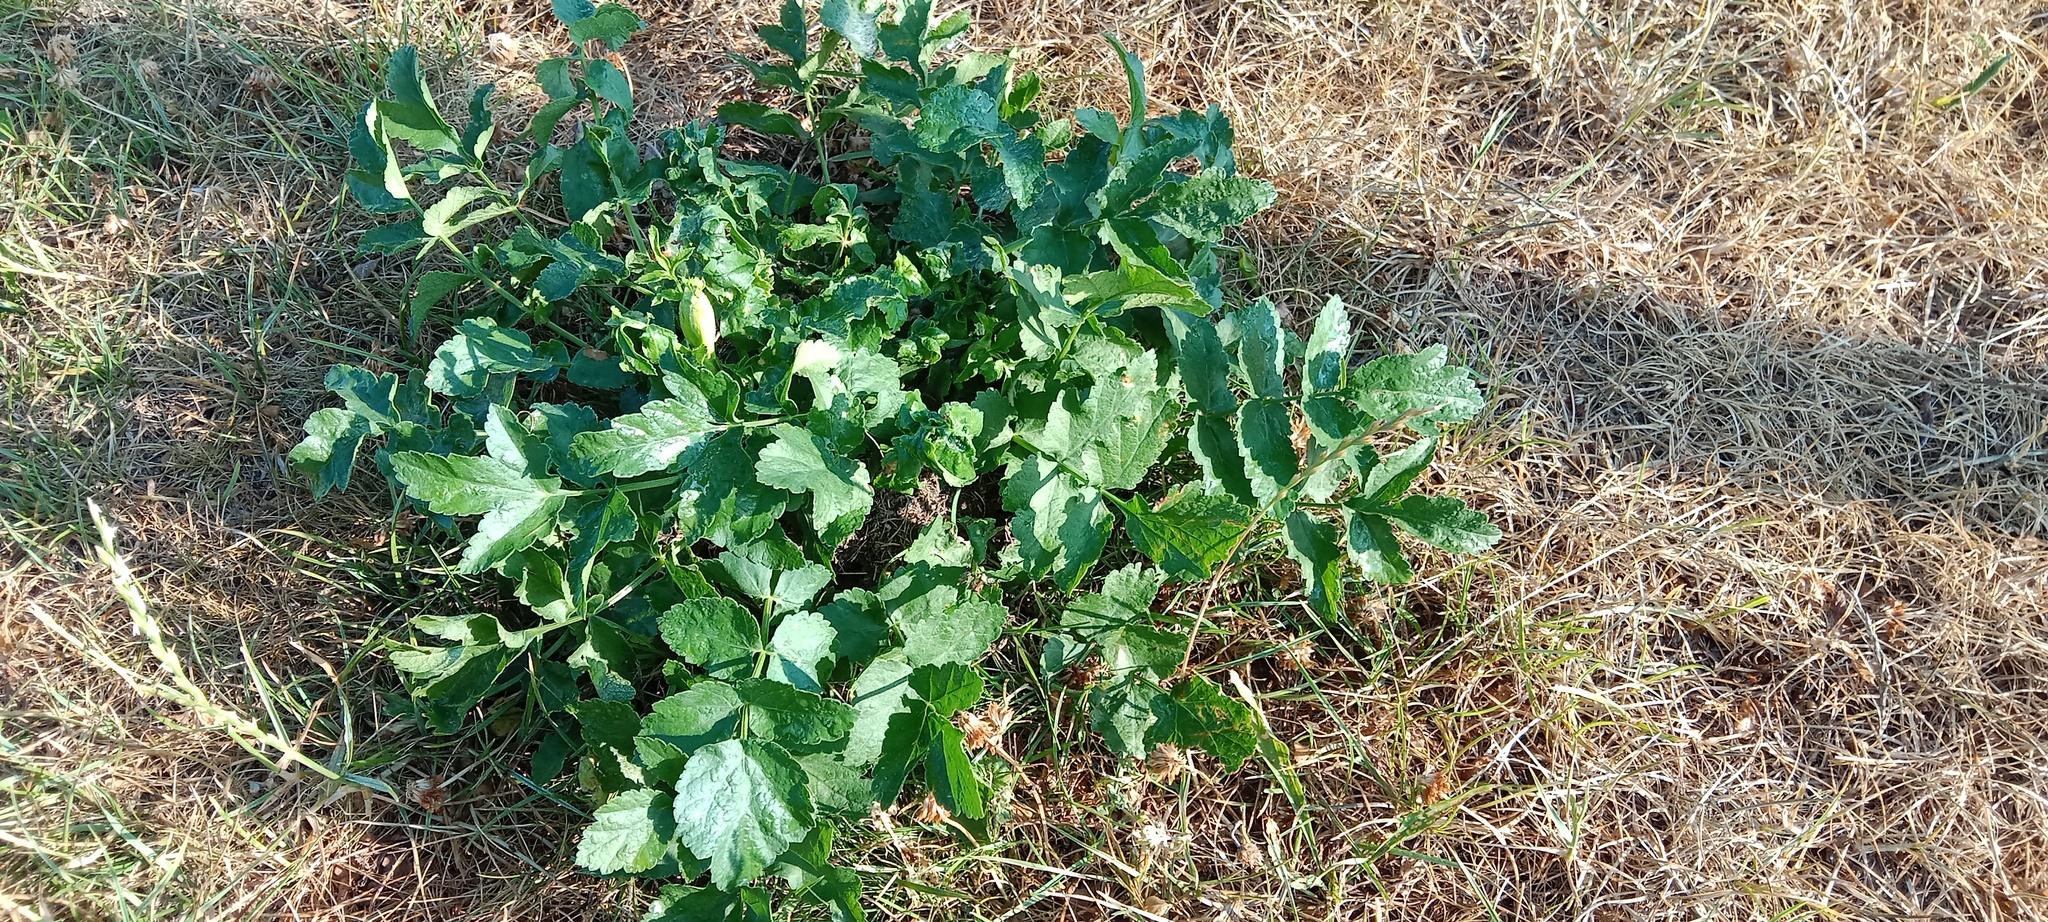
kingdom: Plantae
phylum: Tracheophyta
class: Magnoliopsida
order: Apiales
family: Apiaceae
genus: Pastinaca
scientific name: Pastinaca sativa
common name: Wild parsnip
